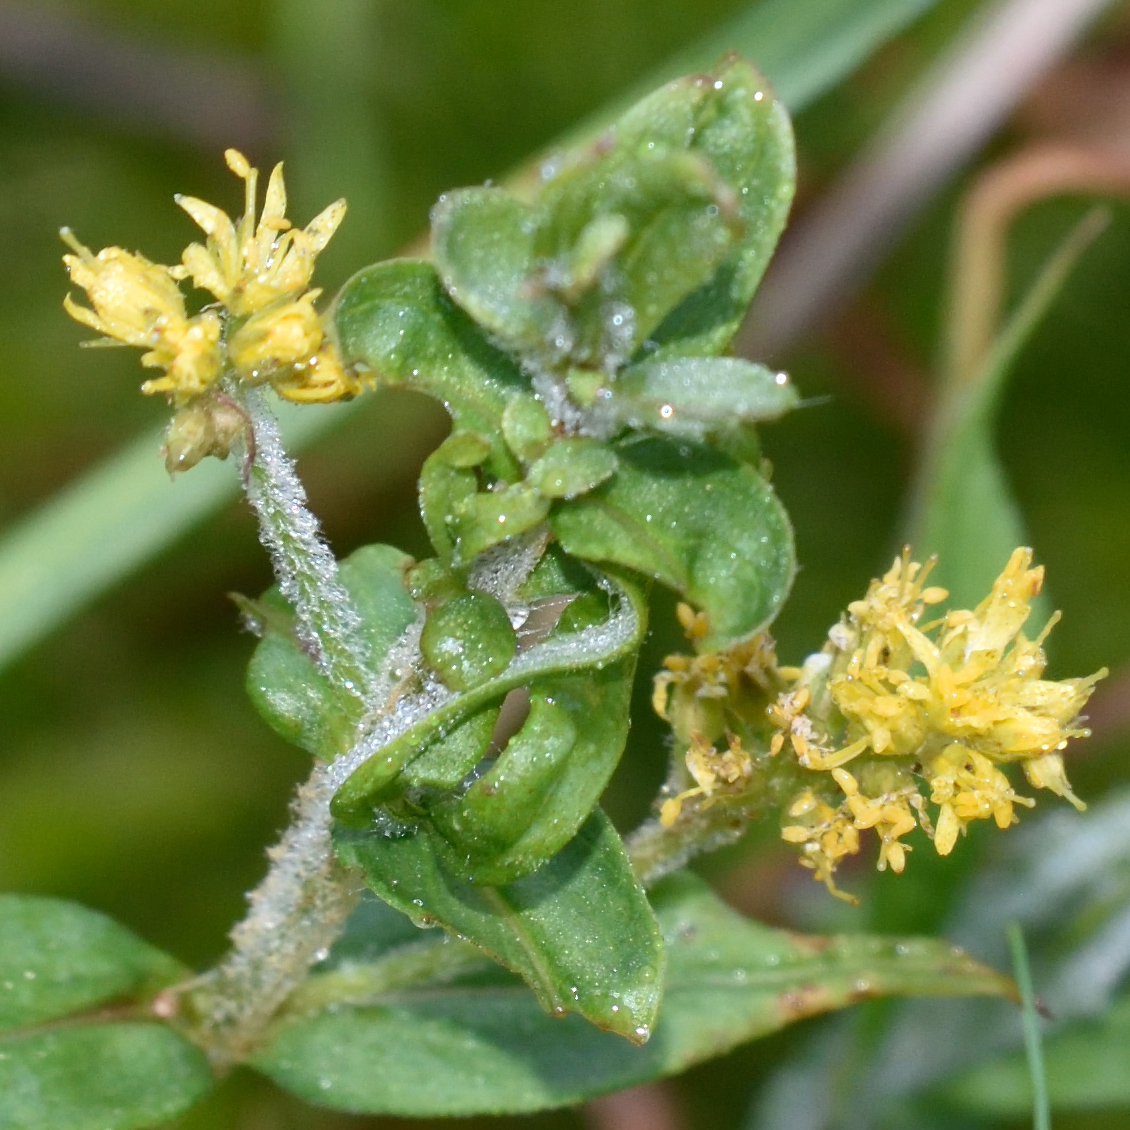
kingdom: Plantae
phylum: Tracheophyta
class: Magnoliopsida
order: Ericales
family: Primulaceae
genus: Lysimachia
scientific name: Lysimachia thyrsiflora
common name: Tufted loosestrife
